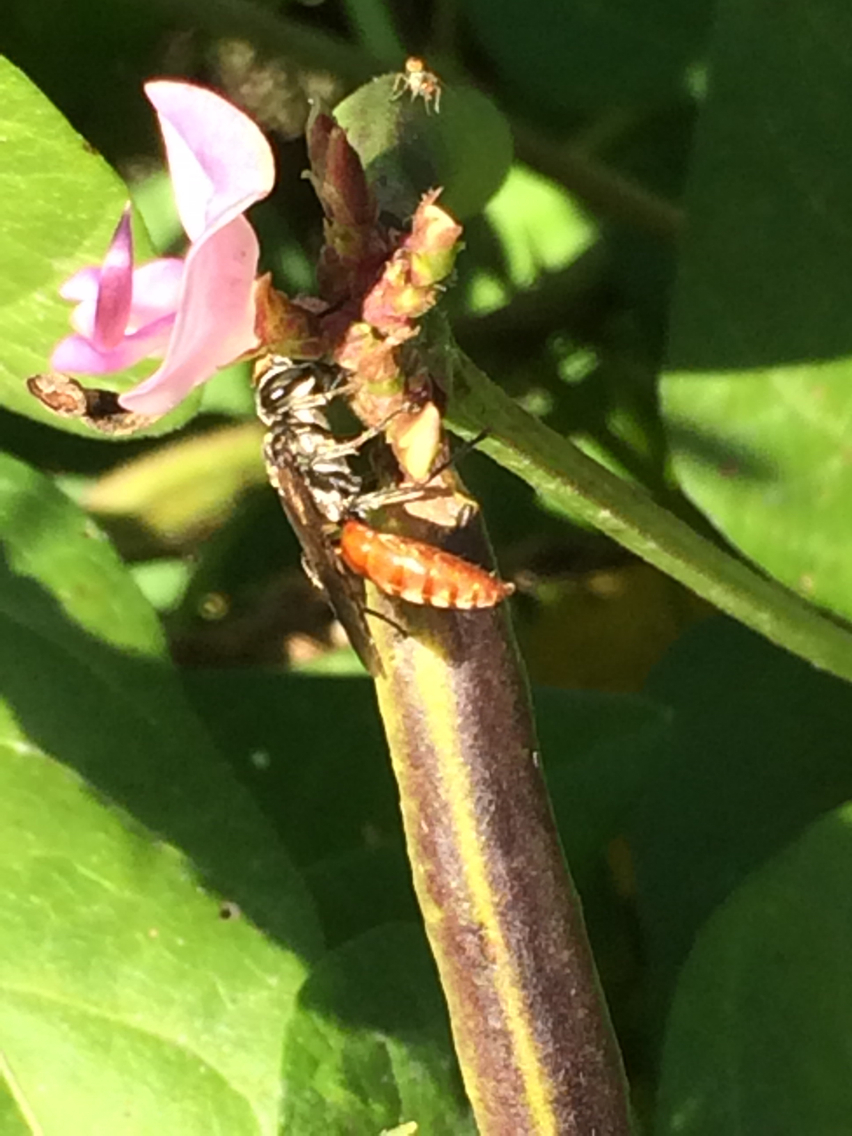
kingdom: Animalia
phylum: Arthropoda
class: Insecta
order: Hymenoptera
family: Crabronidae
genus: Larra
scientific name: Larra bicolor
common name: Wasp
